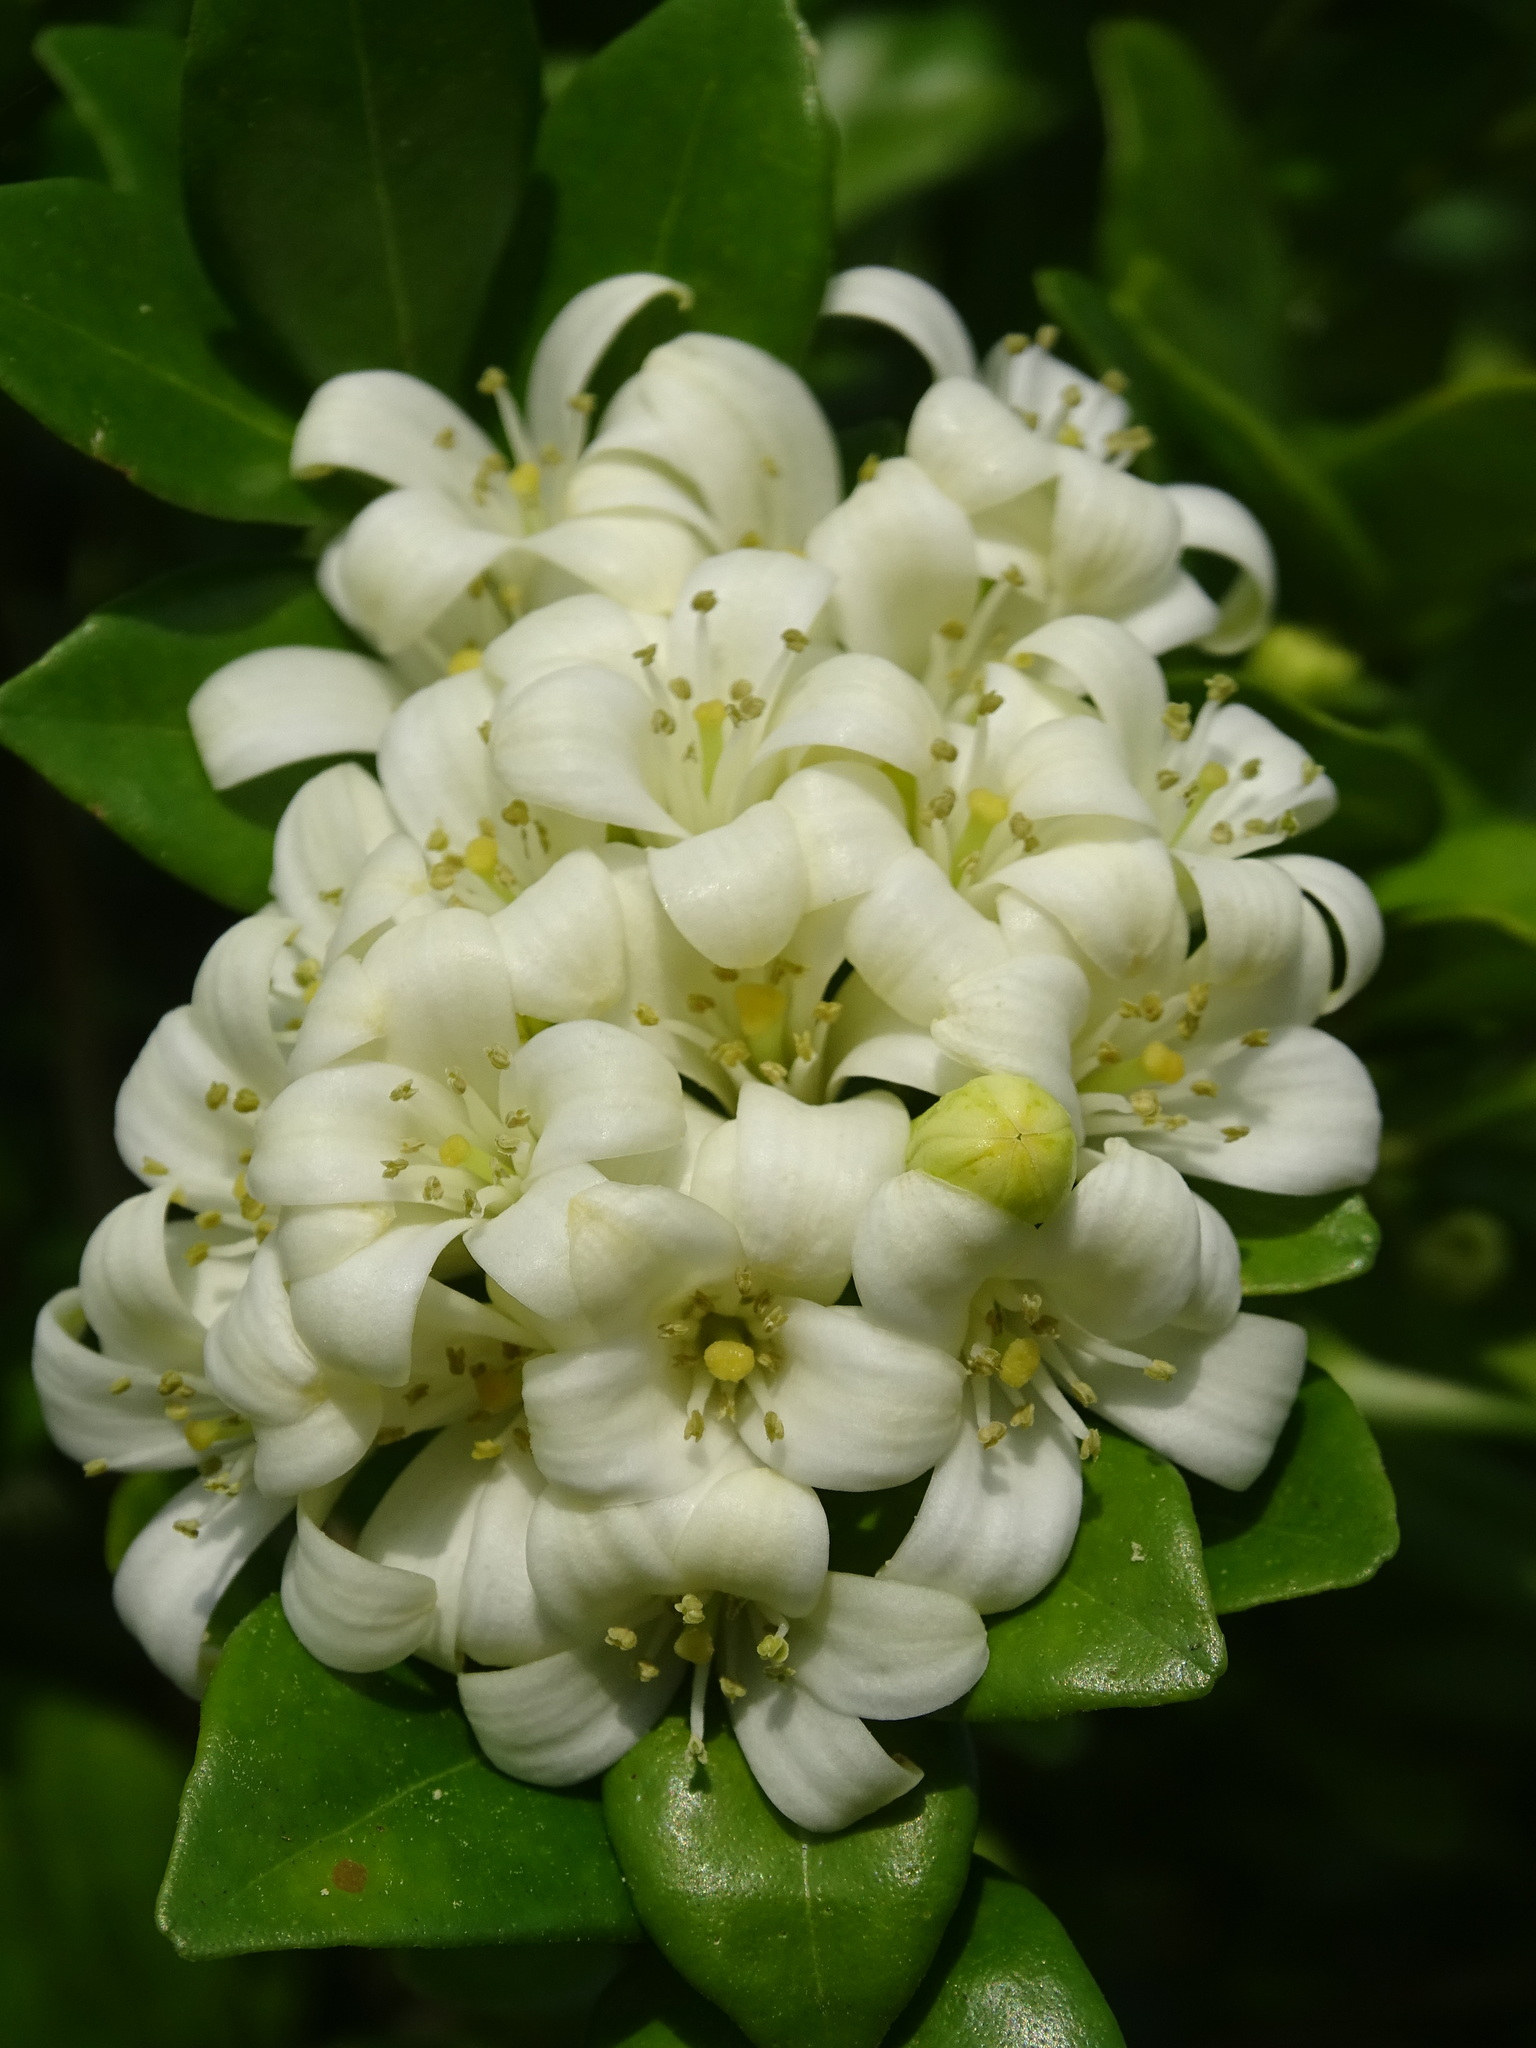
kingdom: Plantae
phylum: Tracheophyta
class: Magnoliopsida
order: Sapindales
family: Rutaceae
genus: Murraya
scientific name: Murraya paniculata
